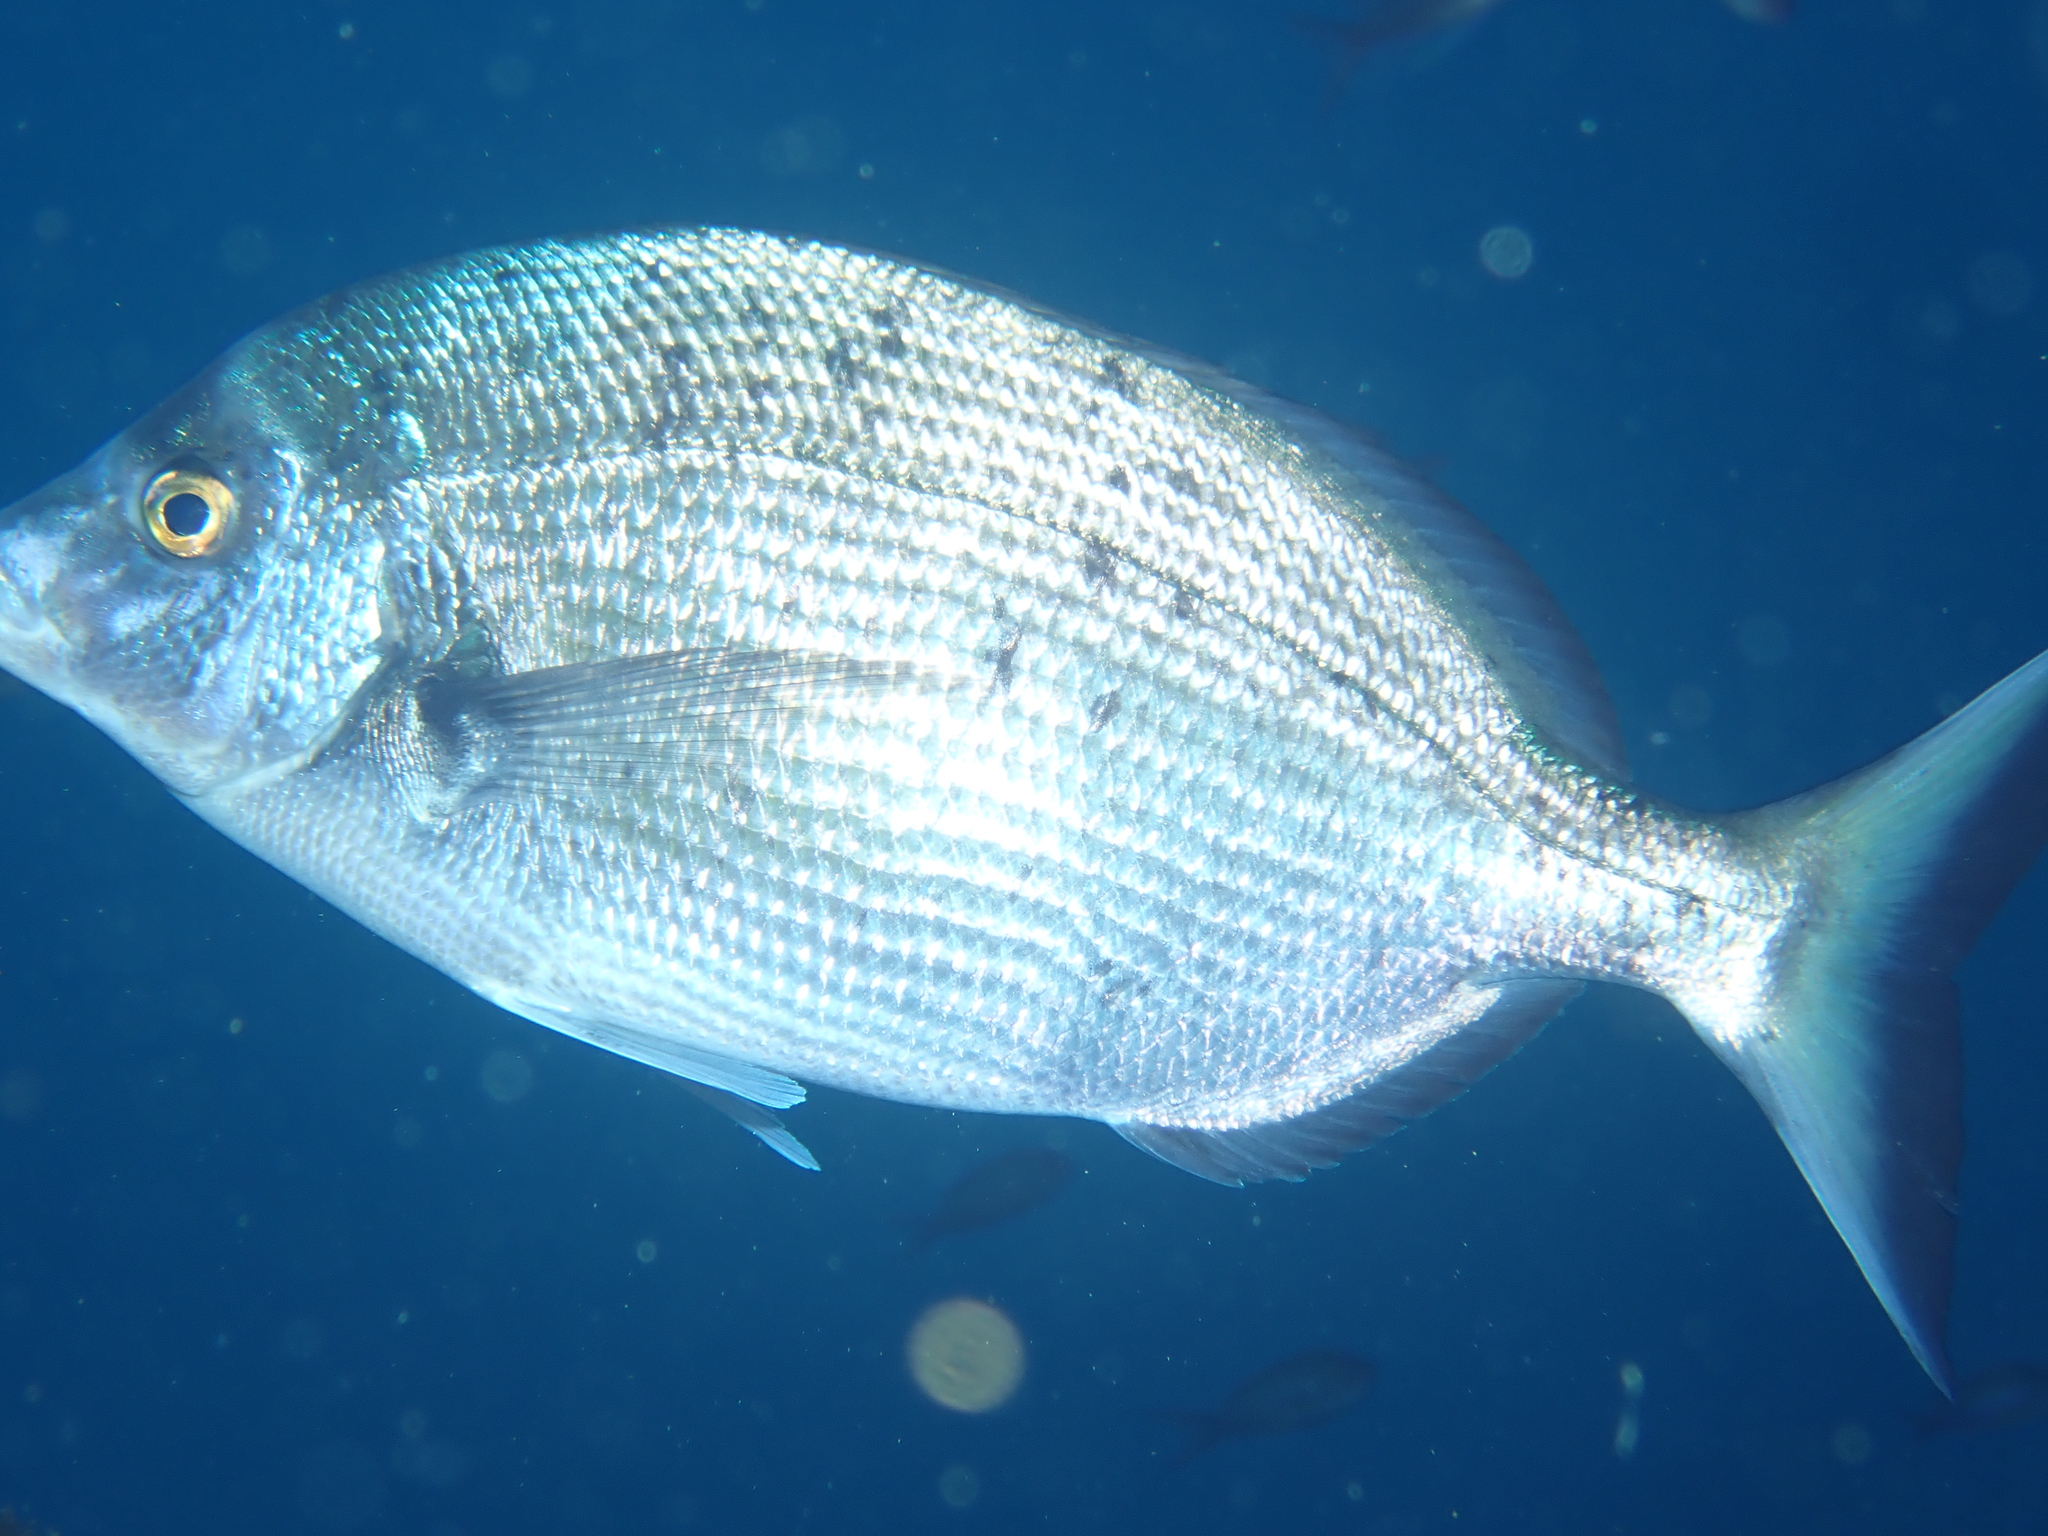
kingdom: Animalia
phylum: Chordata
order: Perciformes
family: Sparidae
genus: Diplodus
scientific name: Diplodus puntazzo
